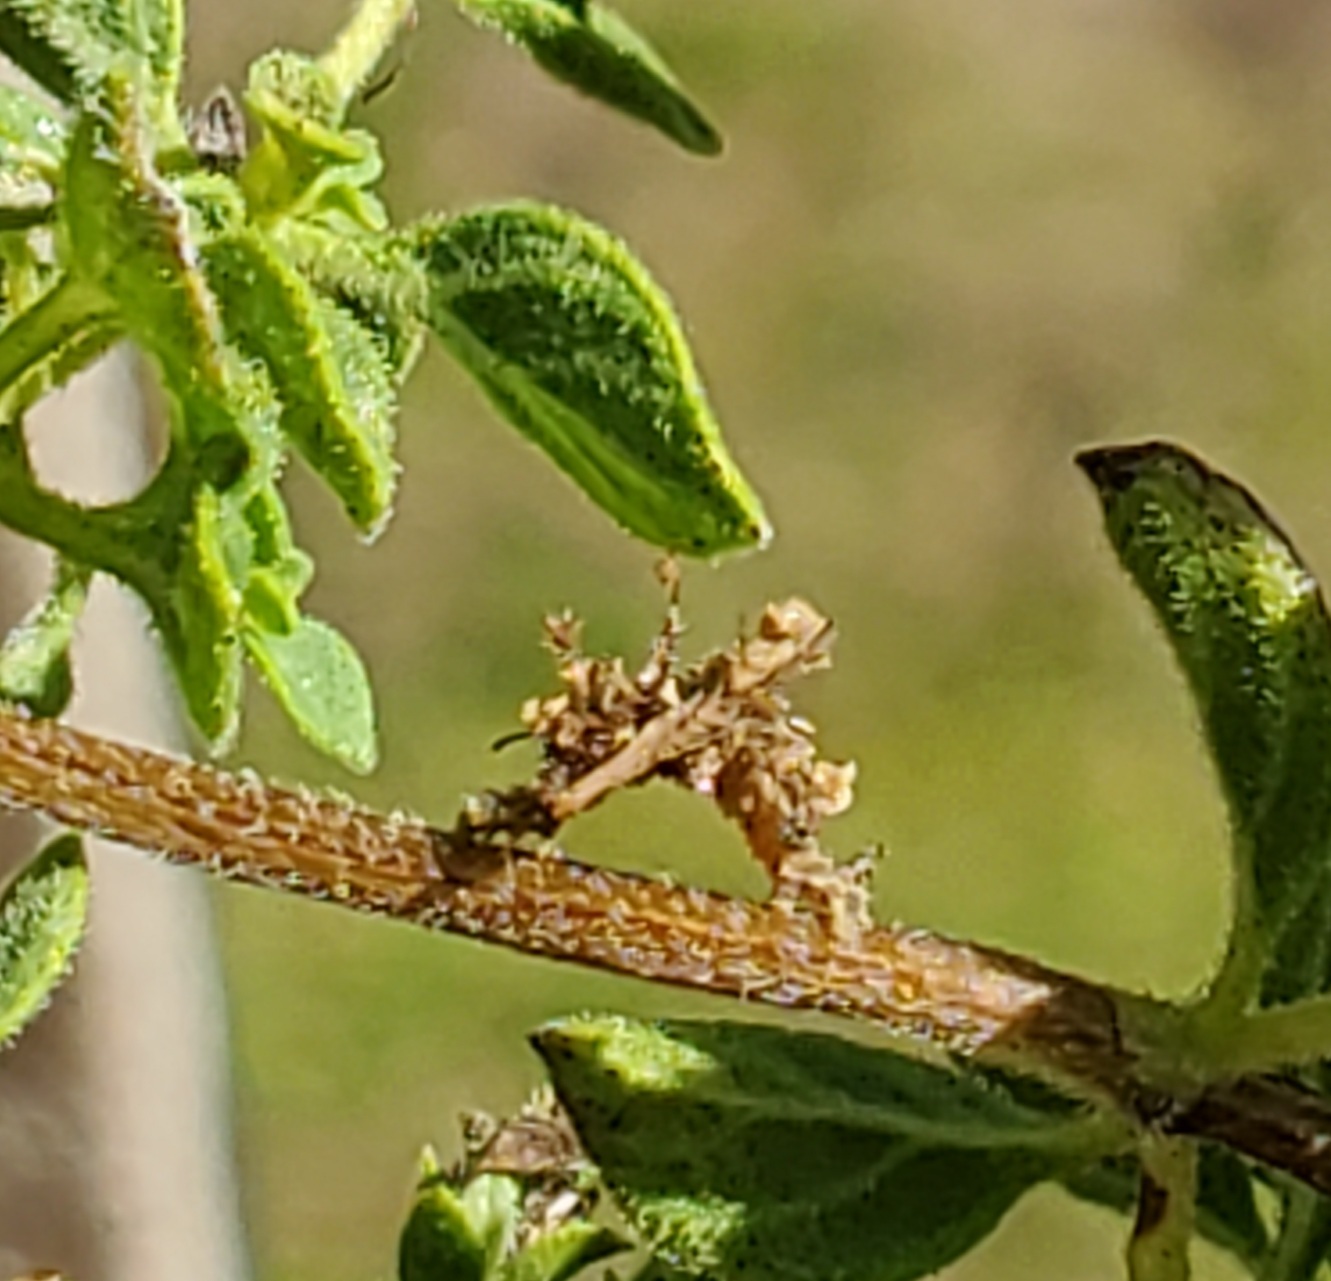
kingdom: Animalia
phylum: Arthropoda
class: Insecta
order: Lepidoptera
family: Geometridae
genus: Synchlora
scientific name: Synchlora aerata
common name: Wavy-lined emerald
